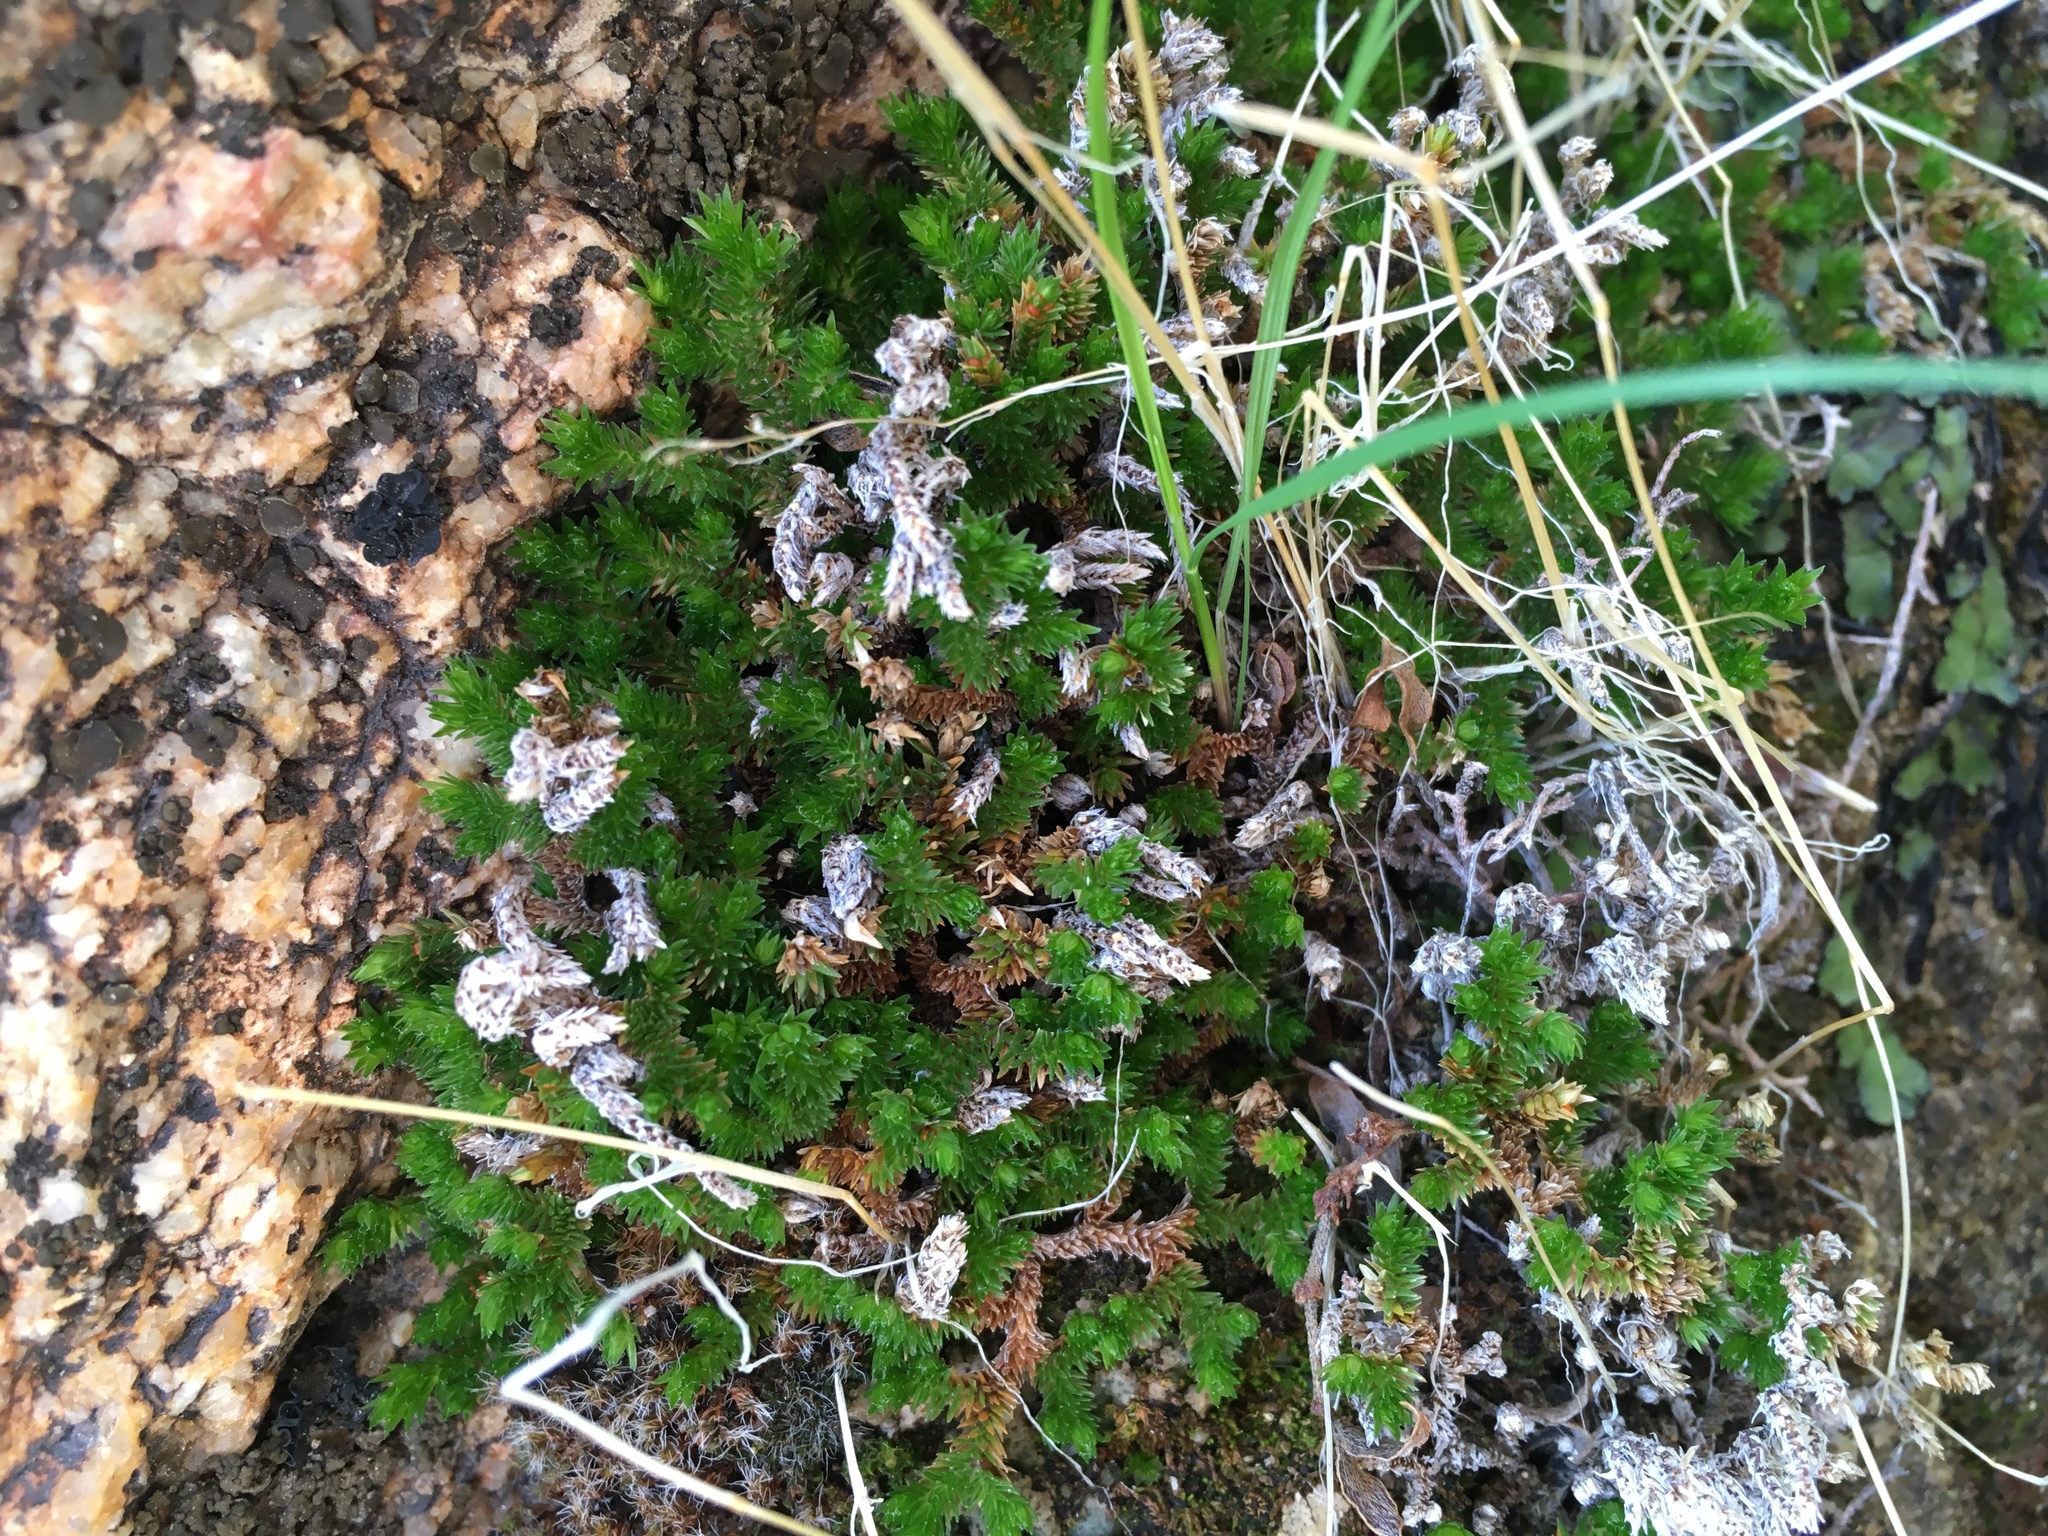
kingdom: Plantae
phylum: Tracheophyta
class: Lycopodiopsida
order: Selaginellales
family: Selaginellaceae
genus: Selaginella
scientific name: Selaginella eremophila
